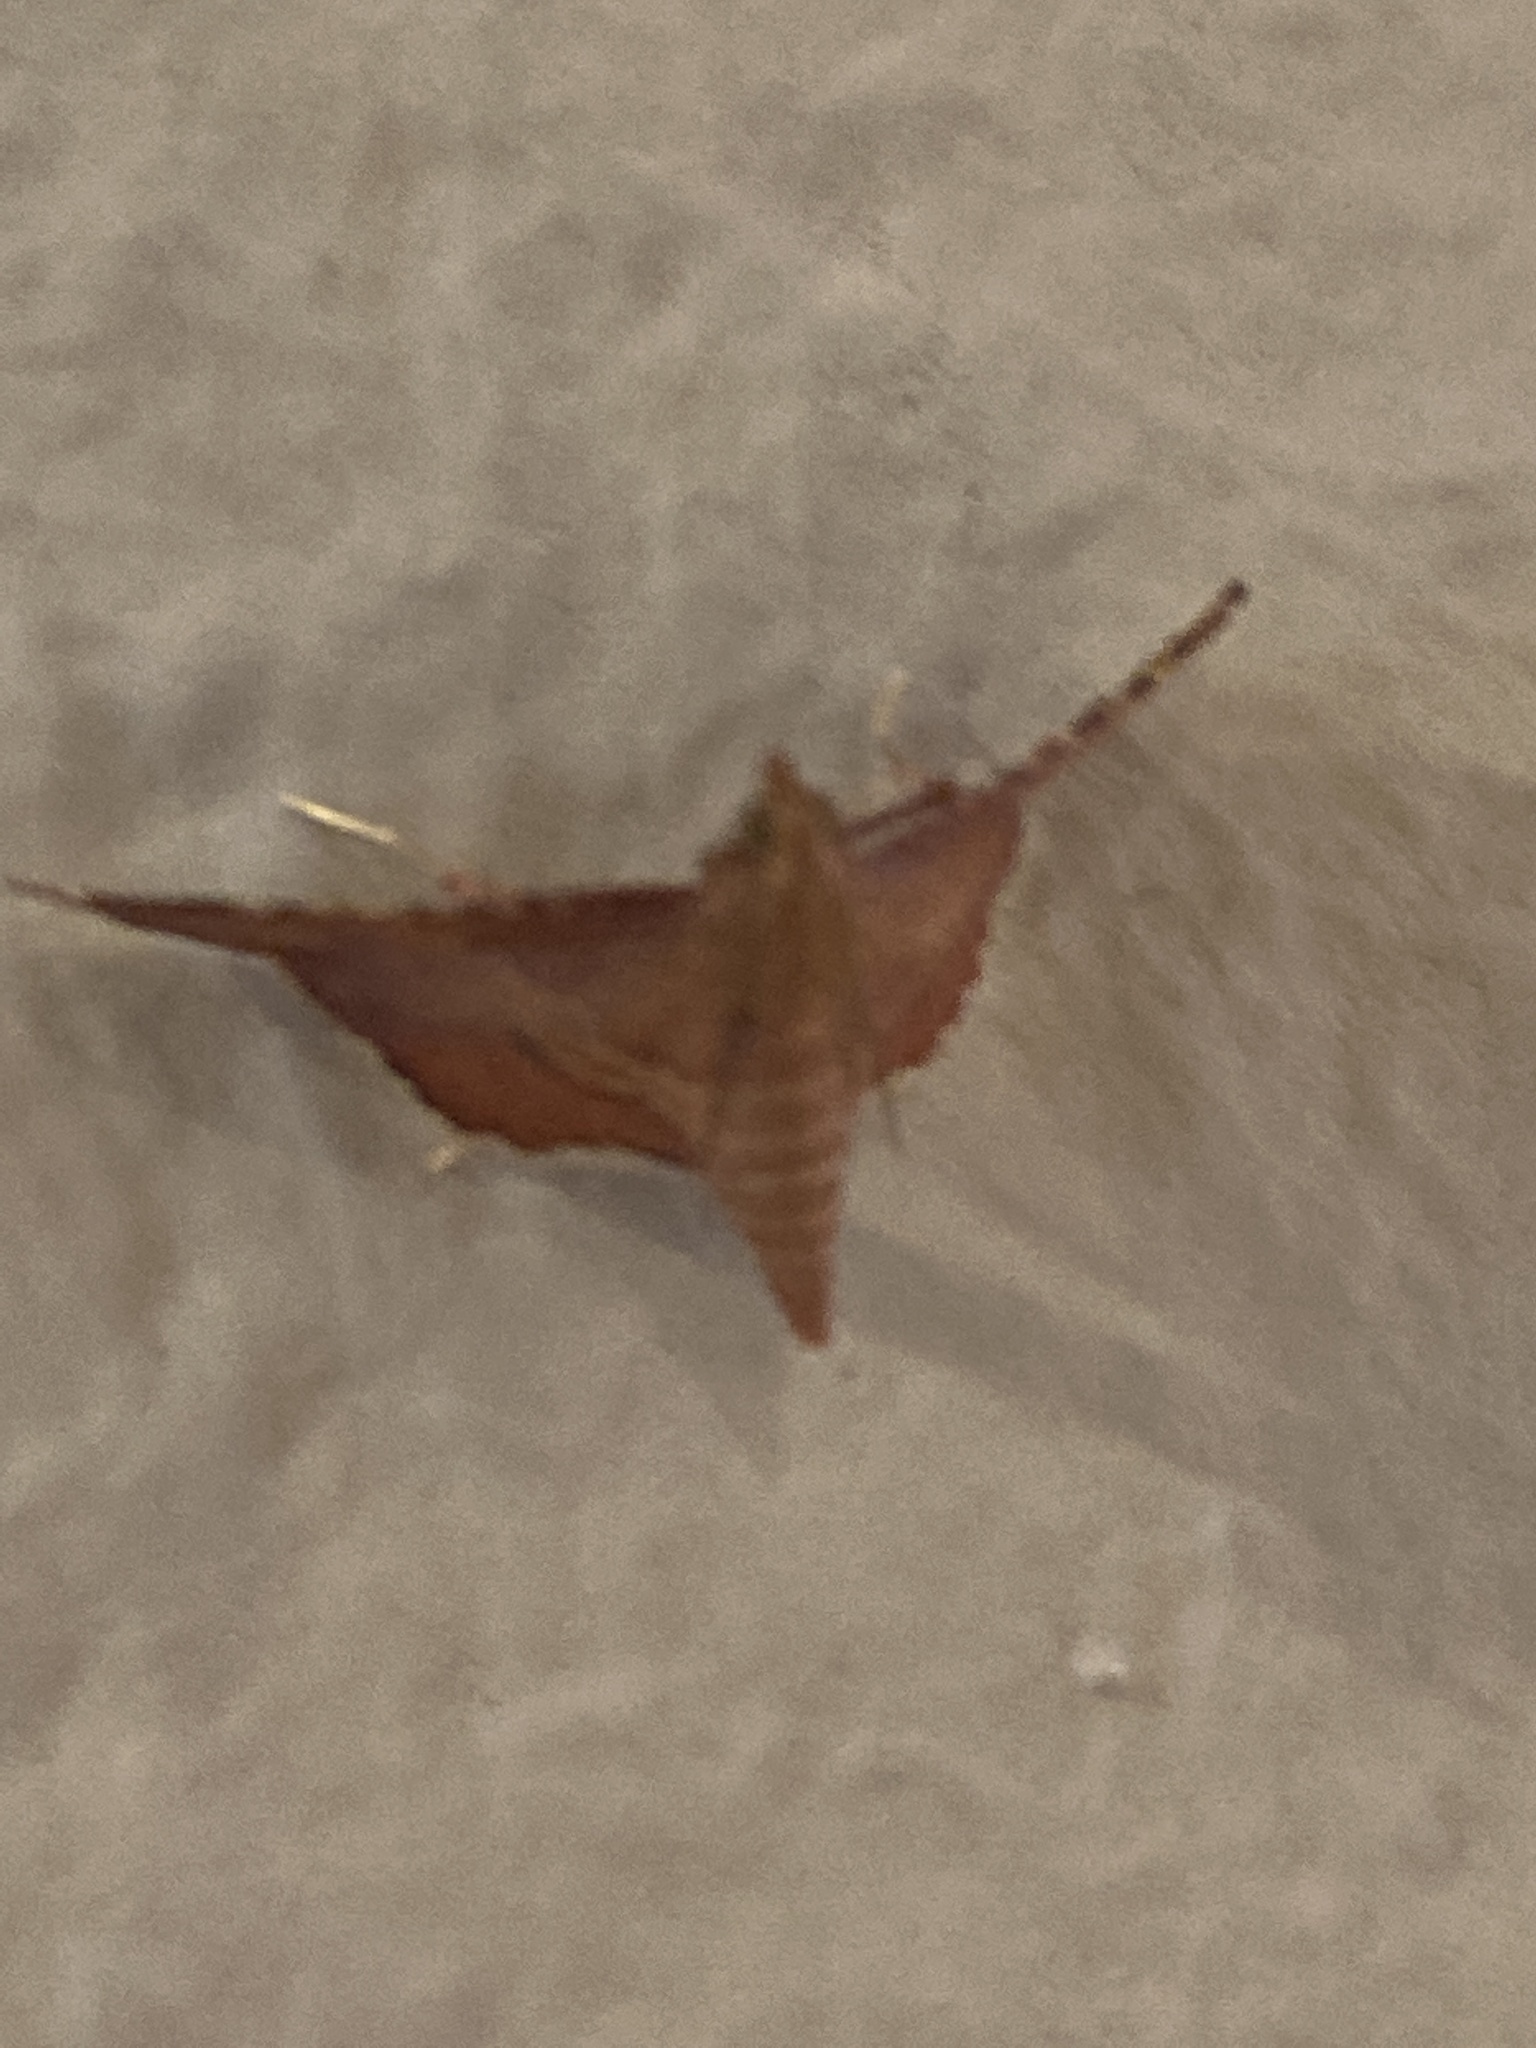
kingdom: Animalia
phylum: Arthropoda
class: Insecta
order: Lepidoptera
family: Pyralidae
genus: Endotricha
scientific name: Endotricha flammealis
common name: Rosy tabby
